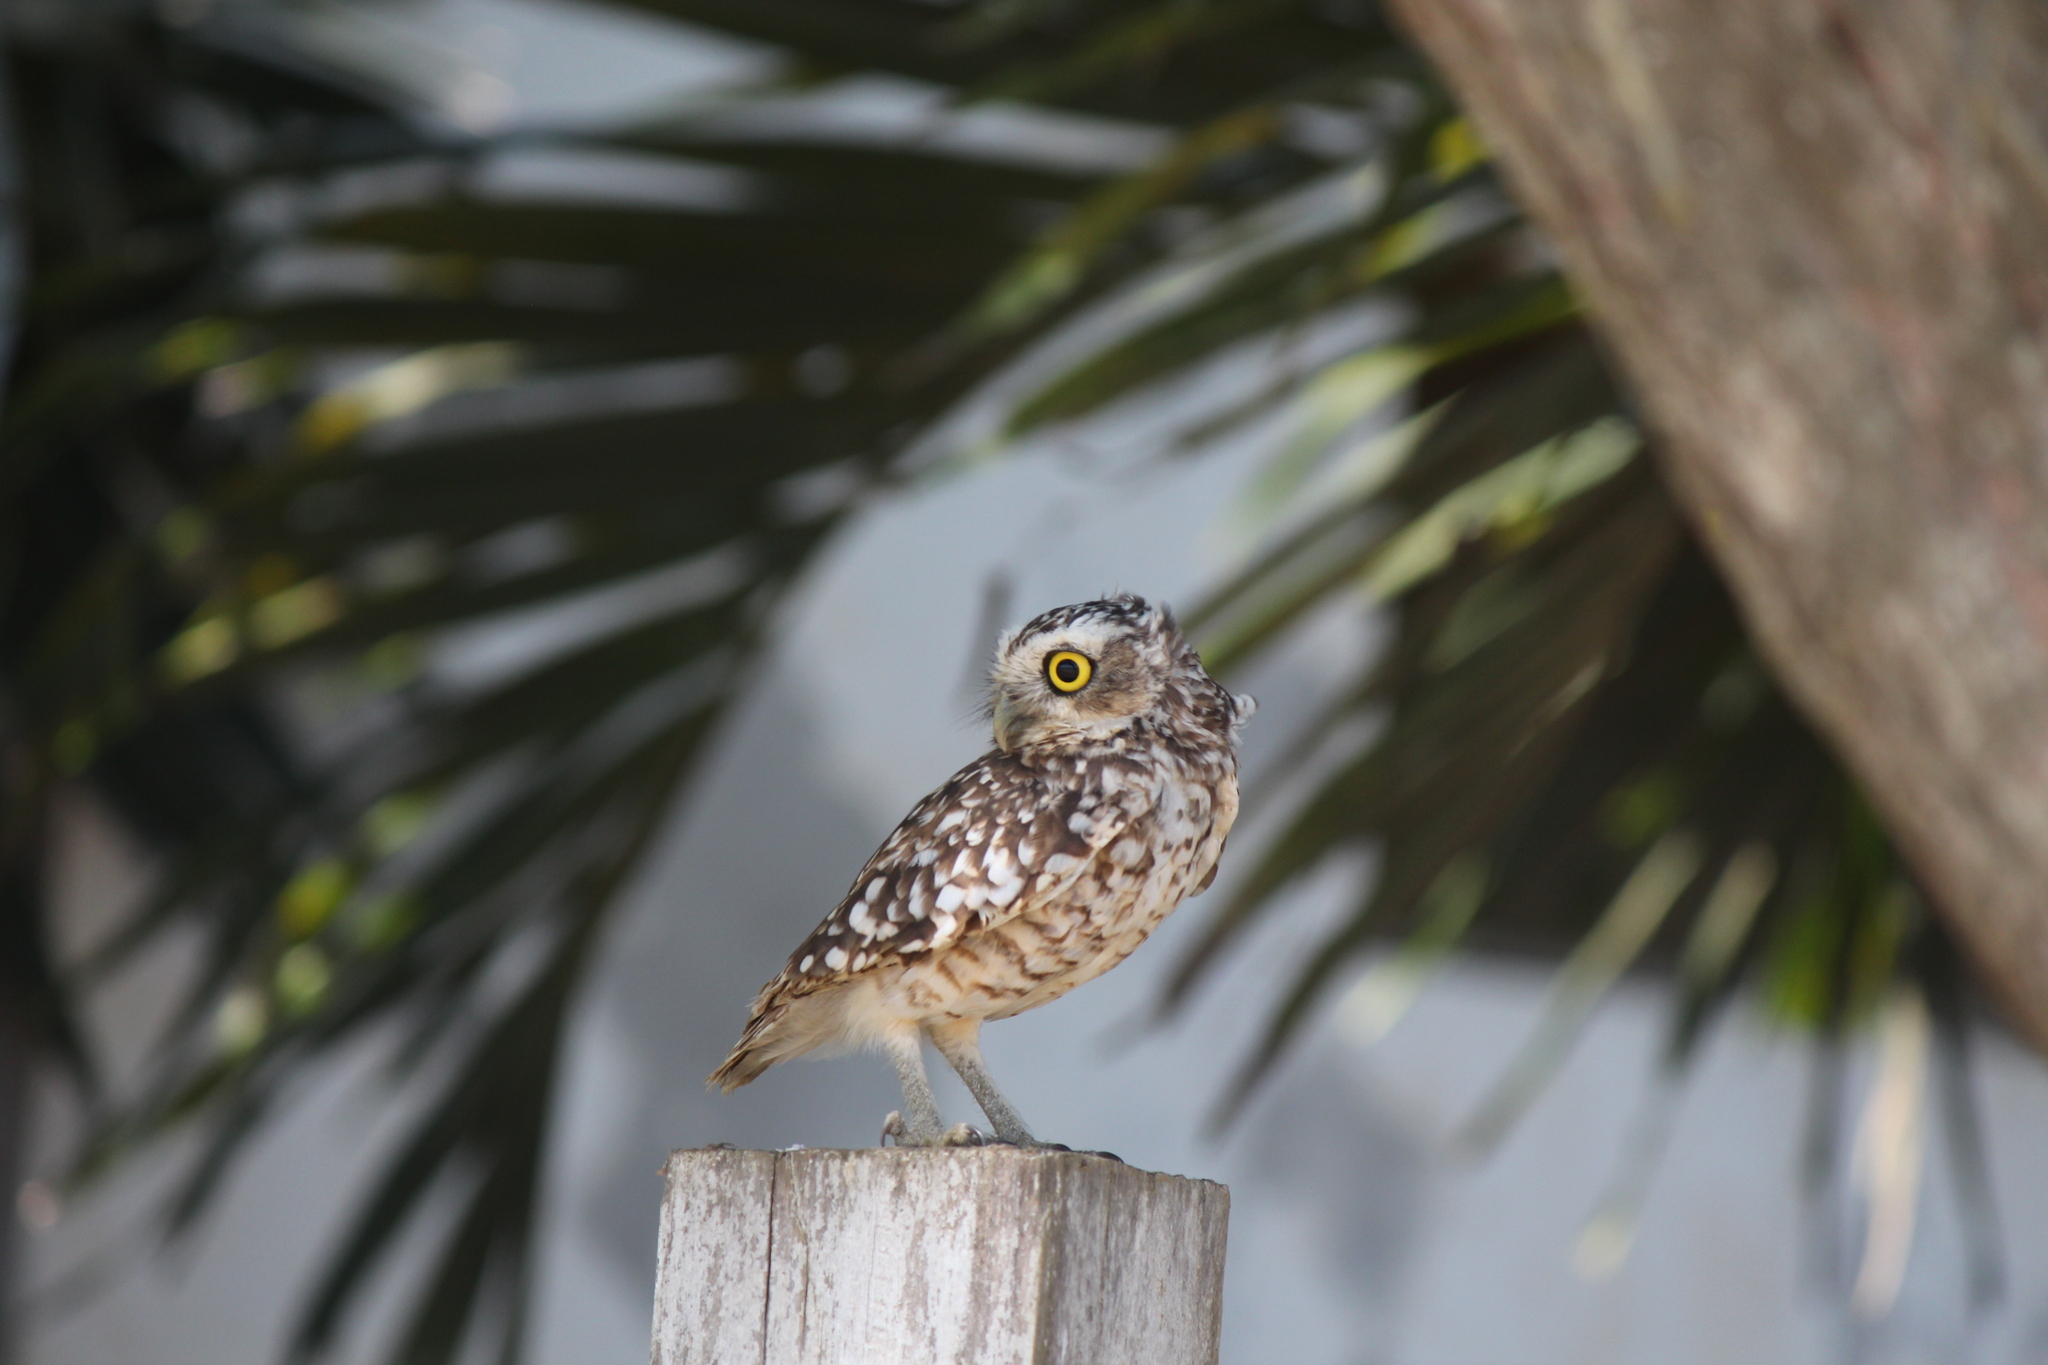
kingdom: Animalia
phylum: Chordata
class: Aves
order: Strigiformes
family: Strigidae
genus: Athene
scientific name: Athene cunicularia
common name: Burrowing owl
